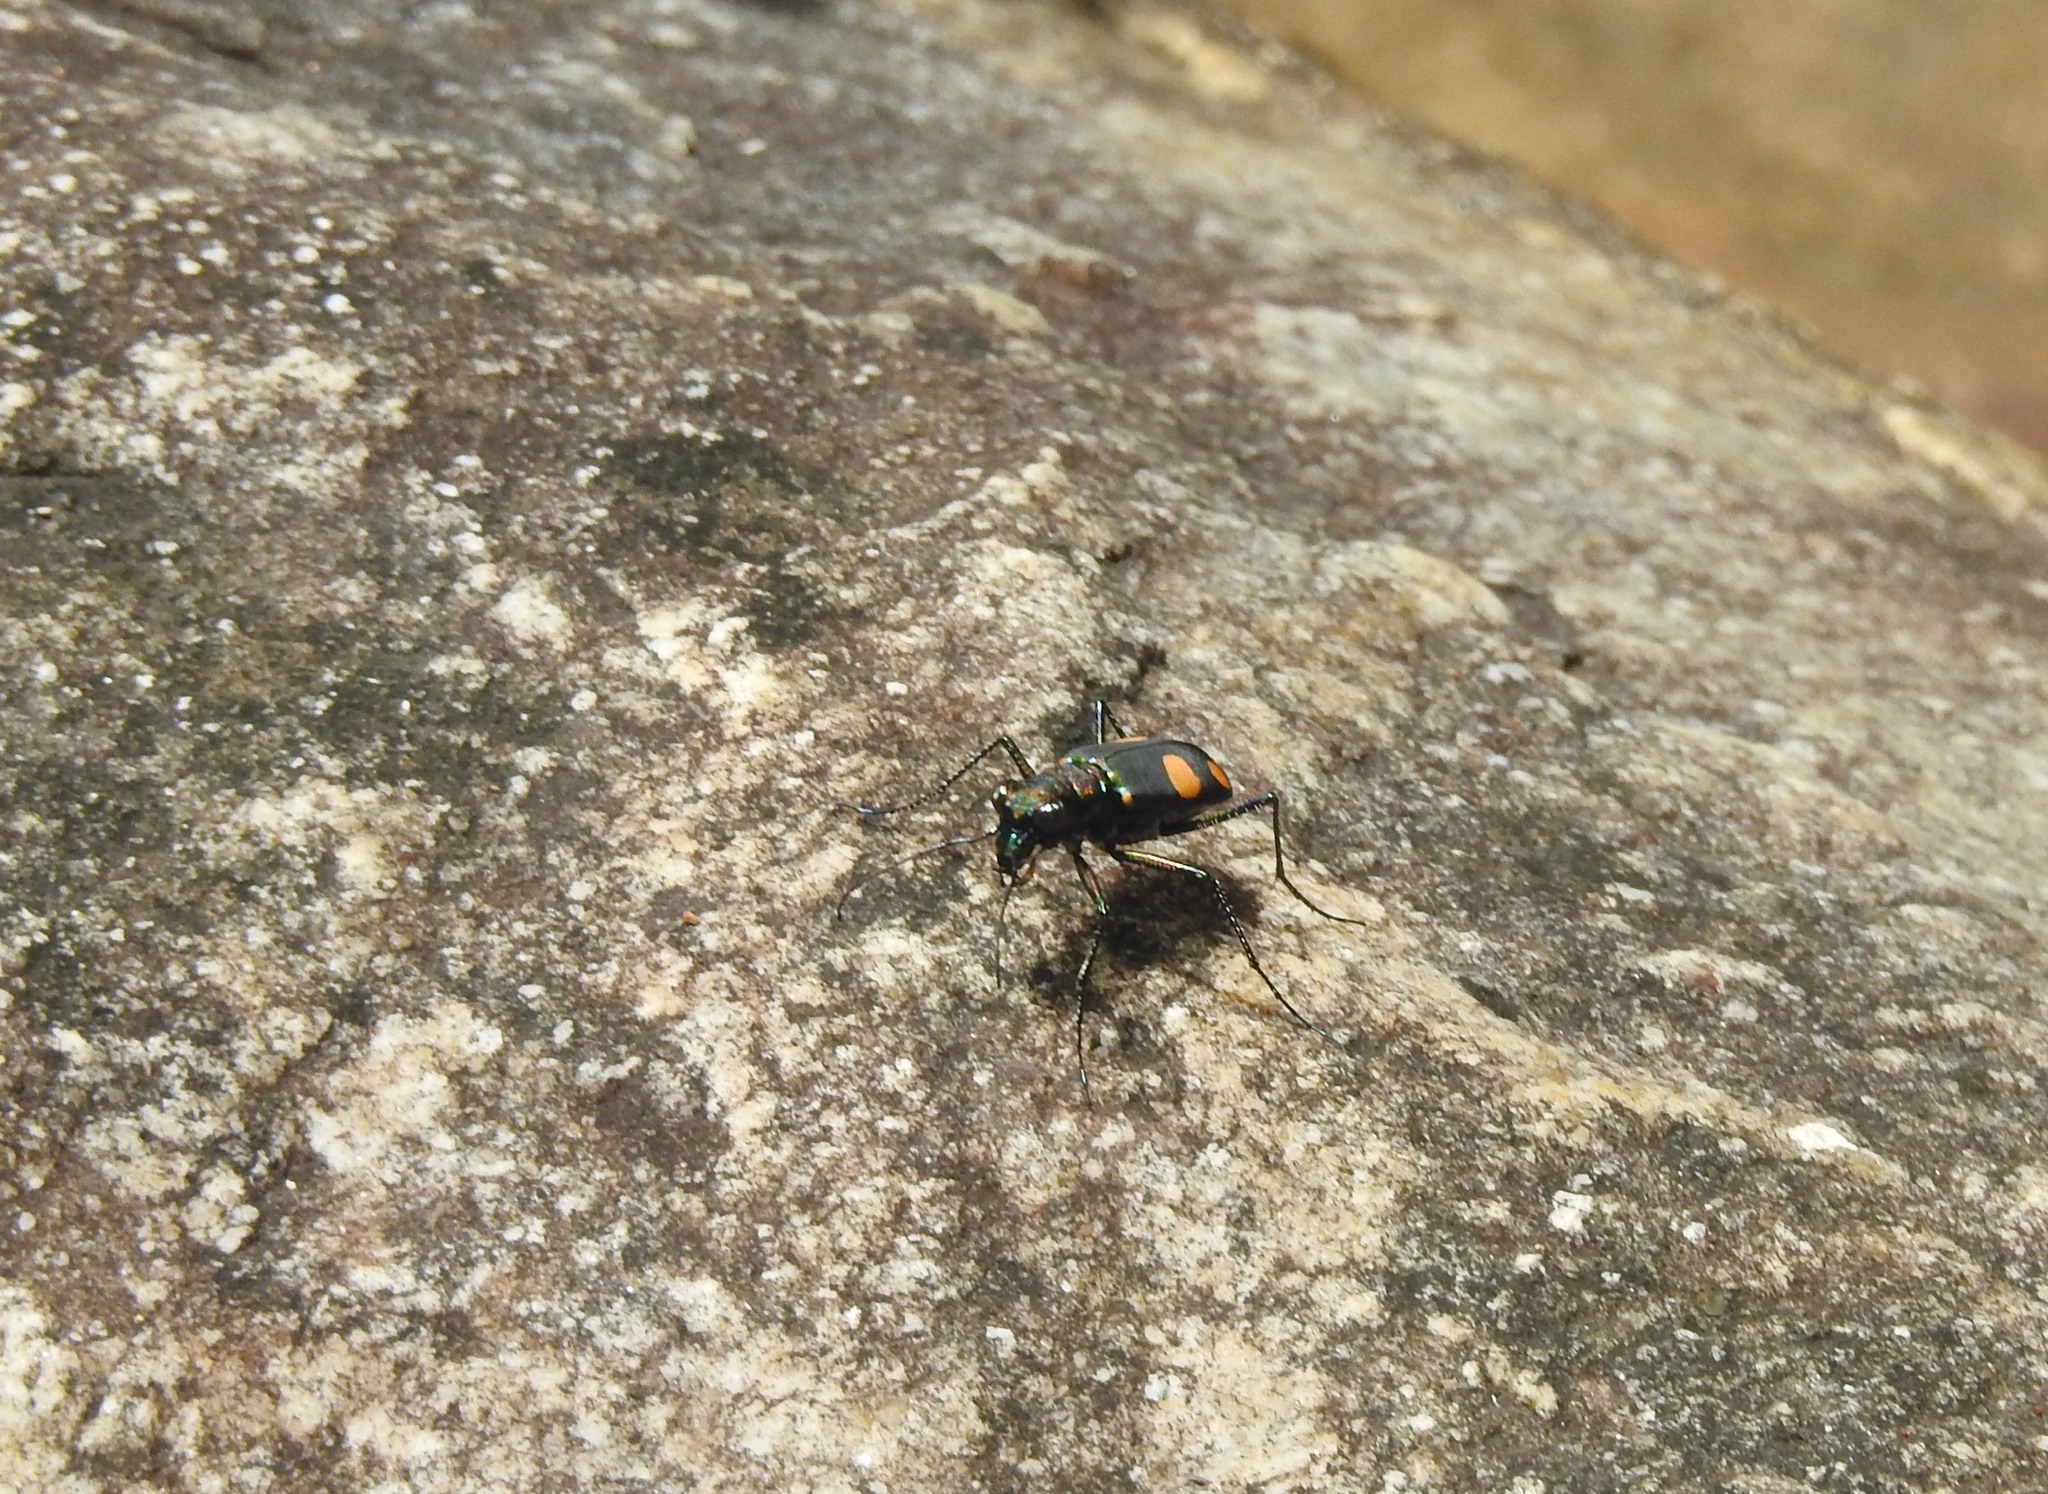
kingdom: Animalia
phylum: Arthropoda
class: Insecta
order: Coleoptera
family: Carabidae
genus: Cicindela
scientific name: Cicindela bicolor
